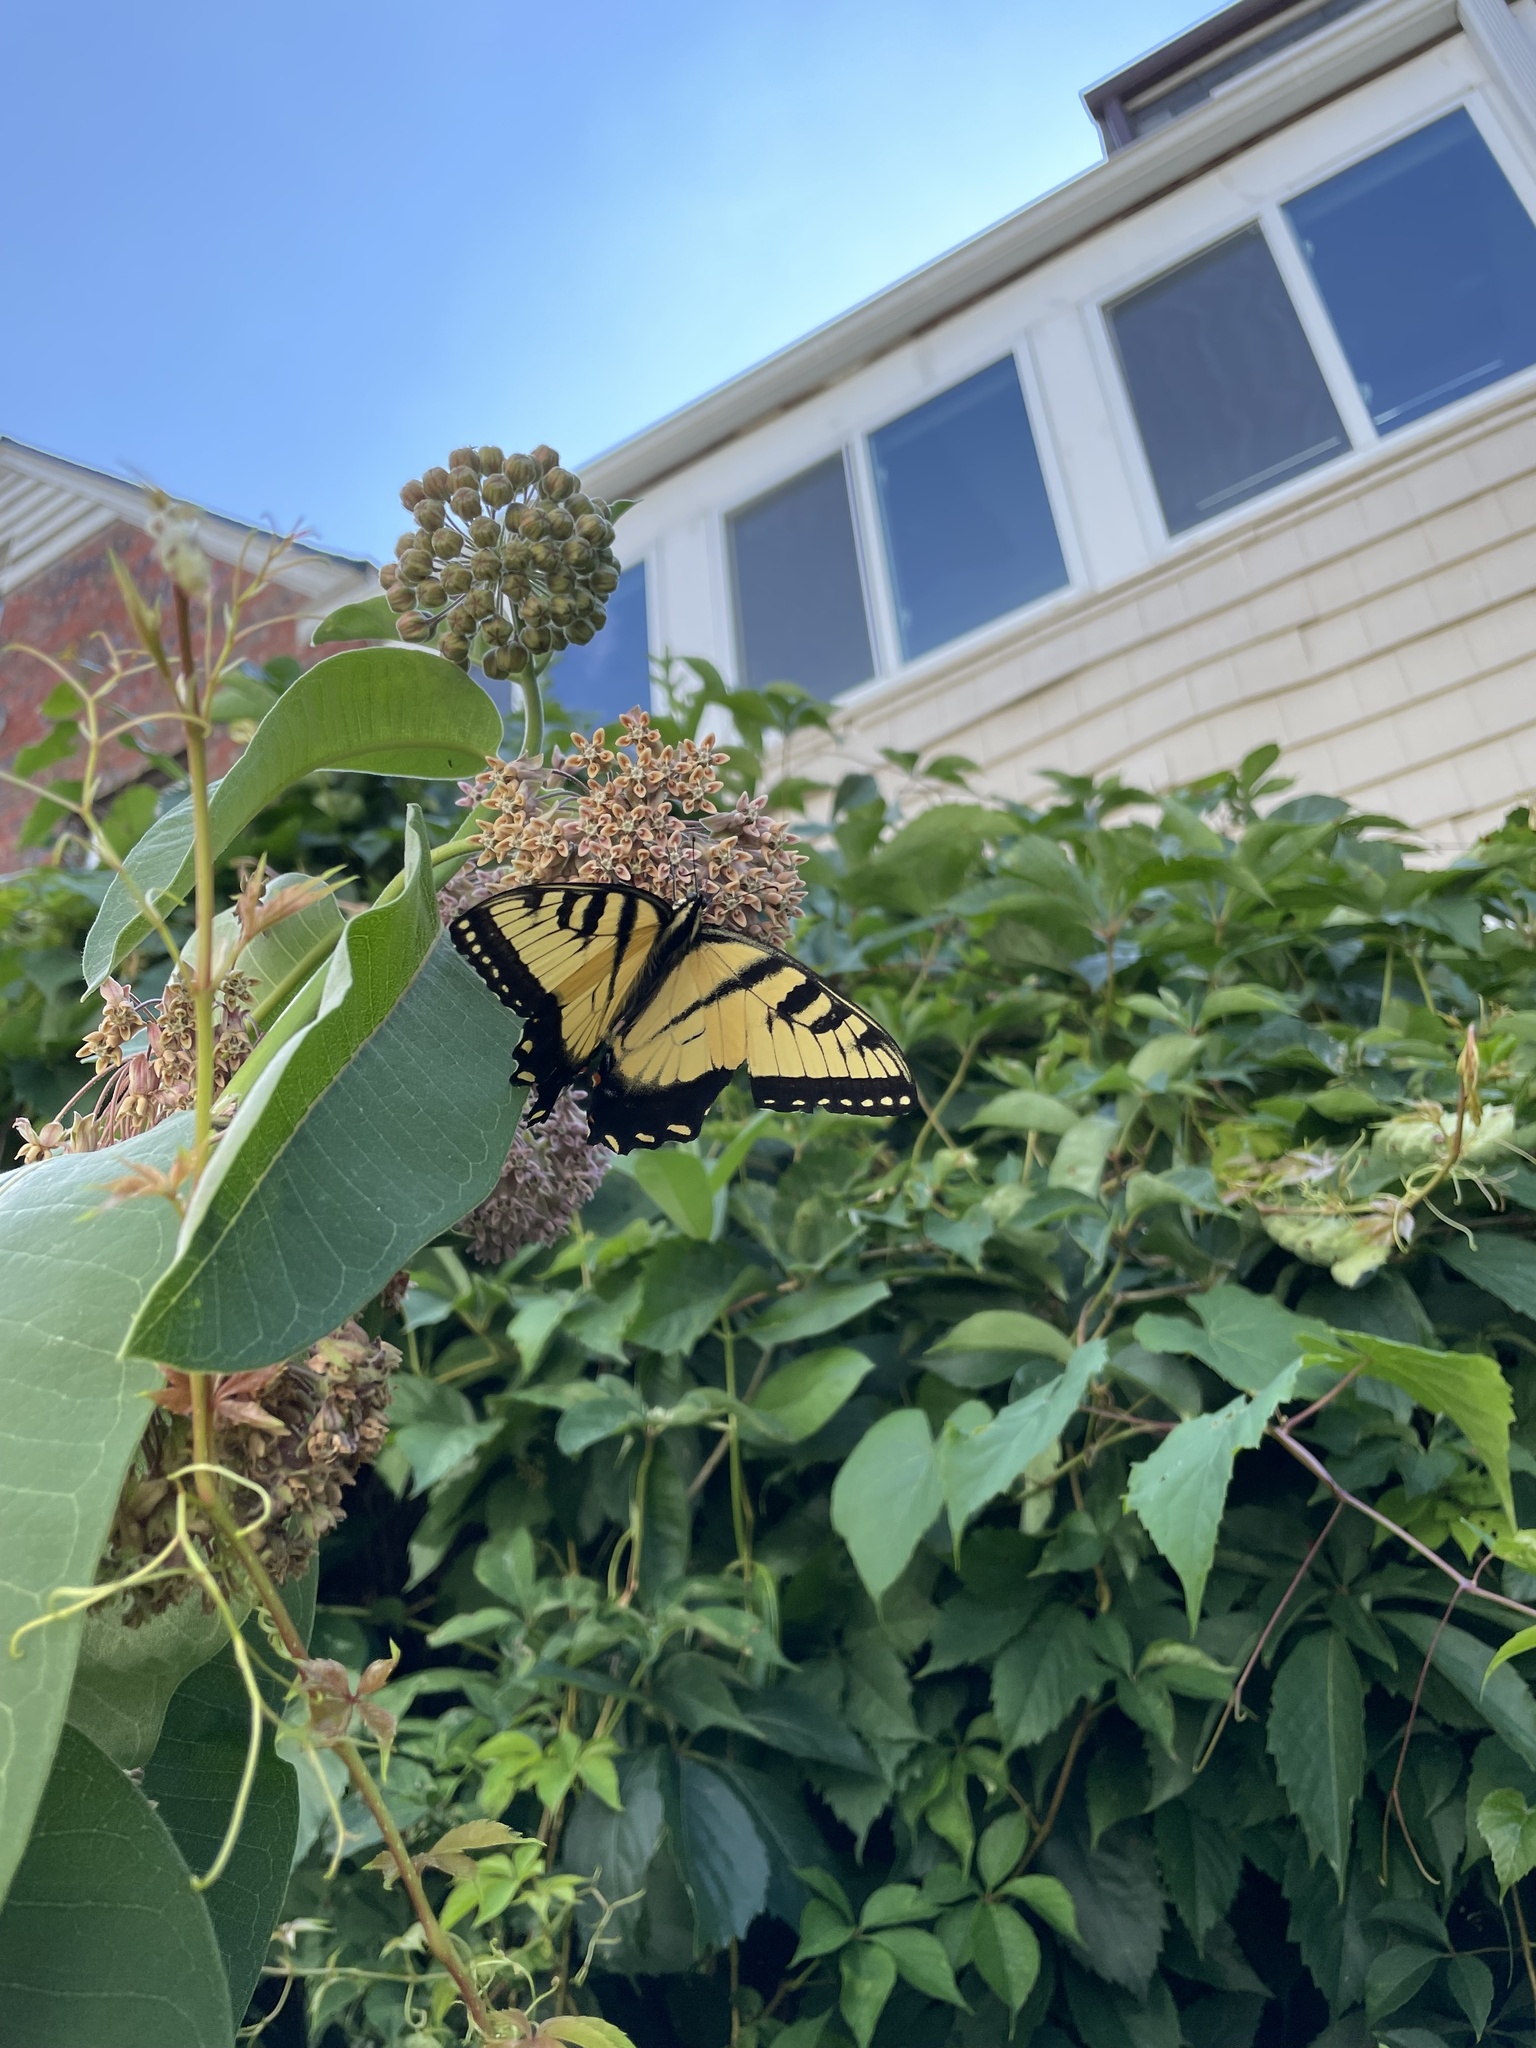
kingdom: Animalia
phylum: Arthropoda
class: Insecta
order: Lepidoptera
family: Papilionidae
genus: Papilio
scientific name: Papilio glaucus
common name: Tiger swallowtail
